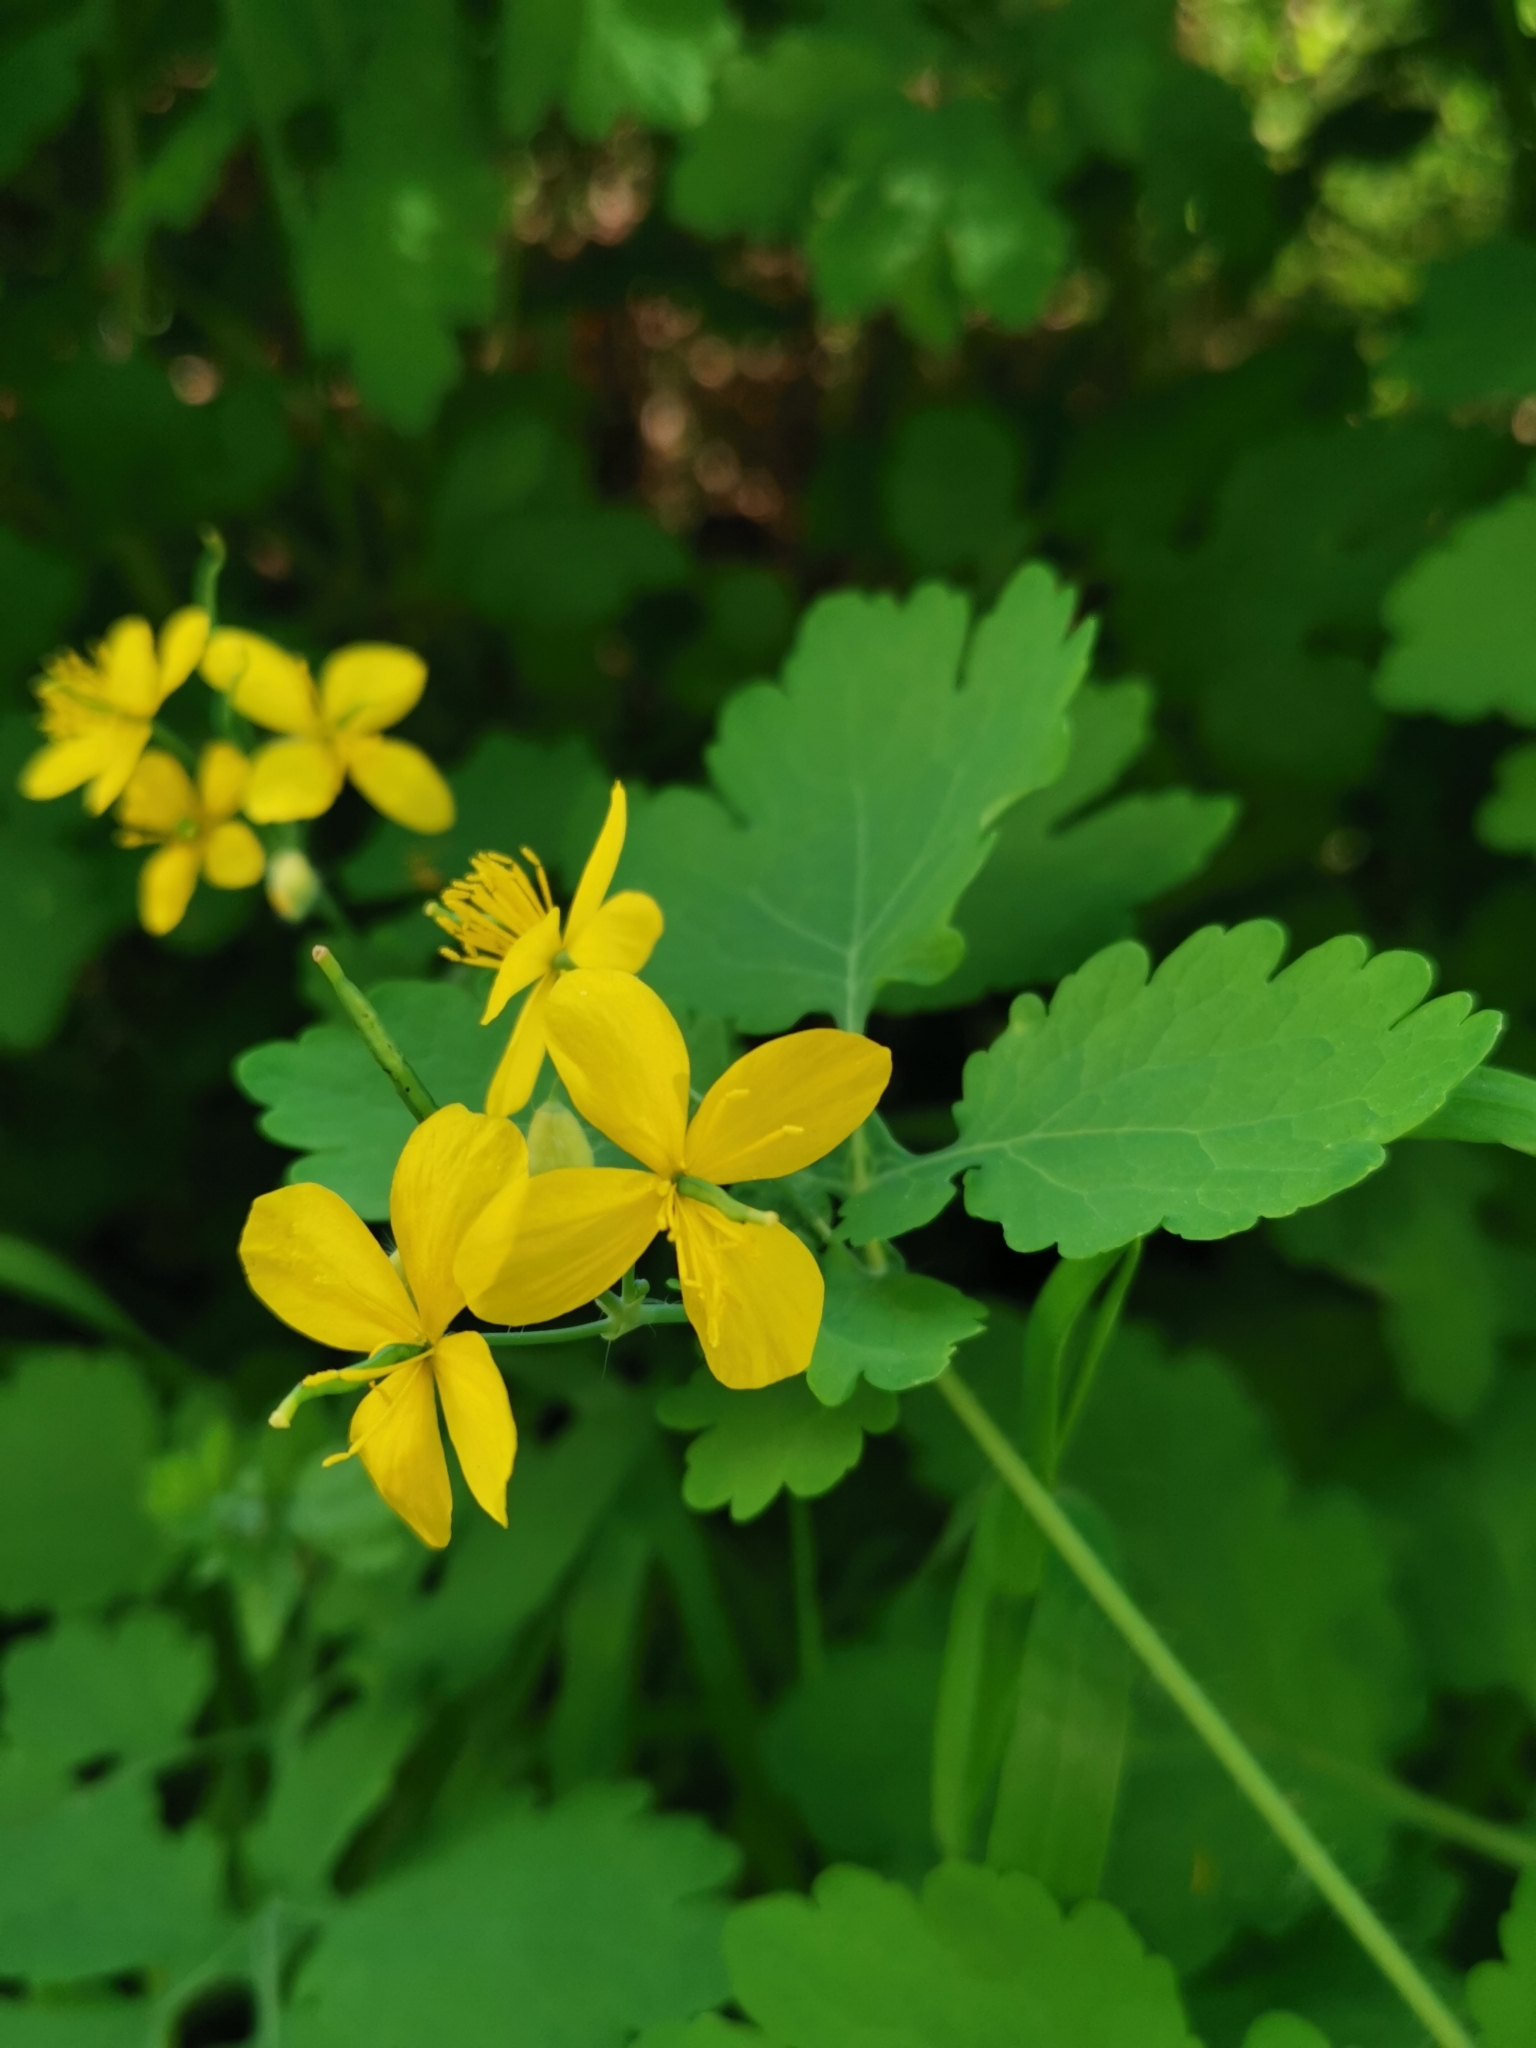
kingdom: Plantae
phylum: Tracheophyta
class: Magnoliopsida
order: Ranunculales
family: Papaveraceae
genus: Chelidonium
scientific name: Chelidonium majus
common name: Greater celandine
